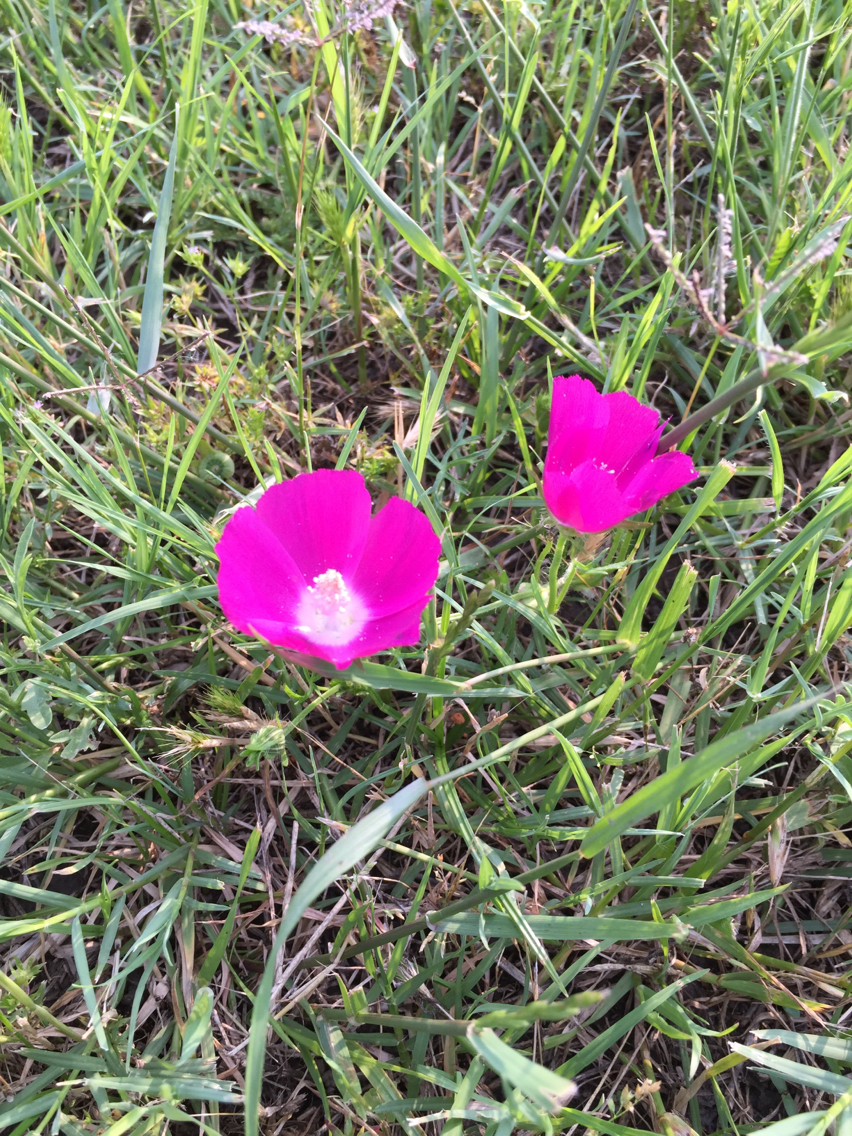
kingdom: Plantae
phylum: Tracheophyta
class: Magnoliopsida
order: Malvales
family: Malvaceae
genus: Callirhoe
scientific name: Callirhoe involucrata
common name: Purple poppy-mallow
